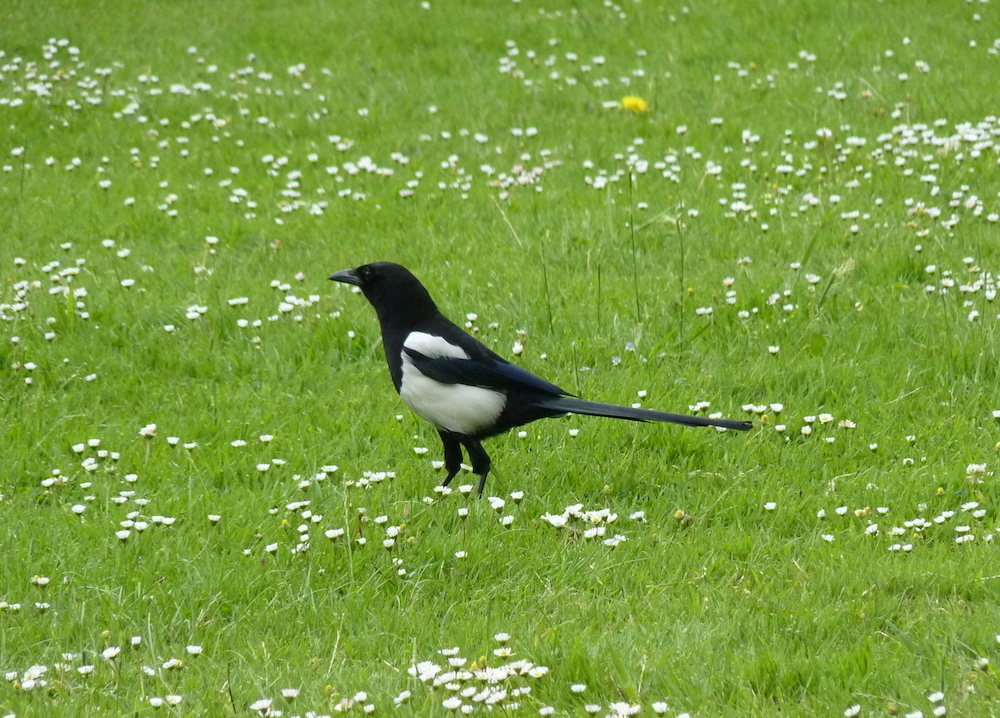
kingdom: Animalia
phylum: Chordata
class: Aves
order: Passeriformes
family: Corvidae
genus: Pica
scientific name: Pica pica
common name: Eurasian magpie
